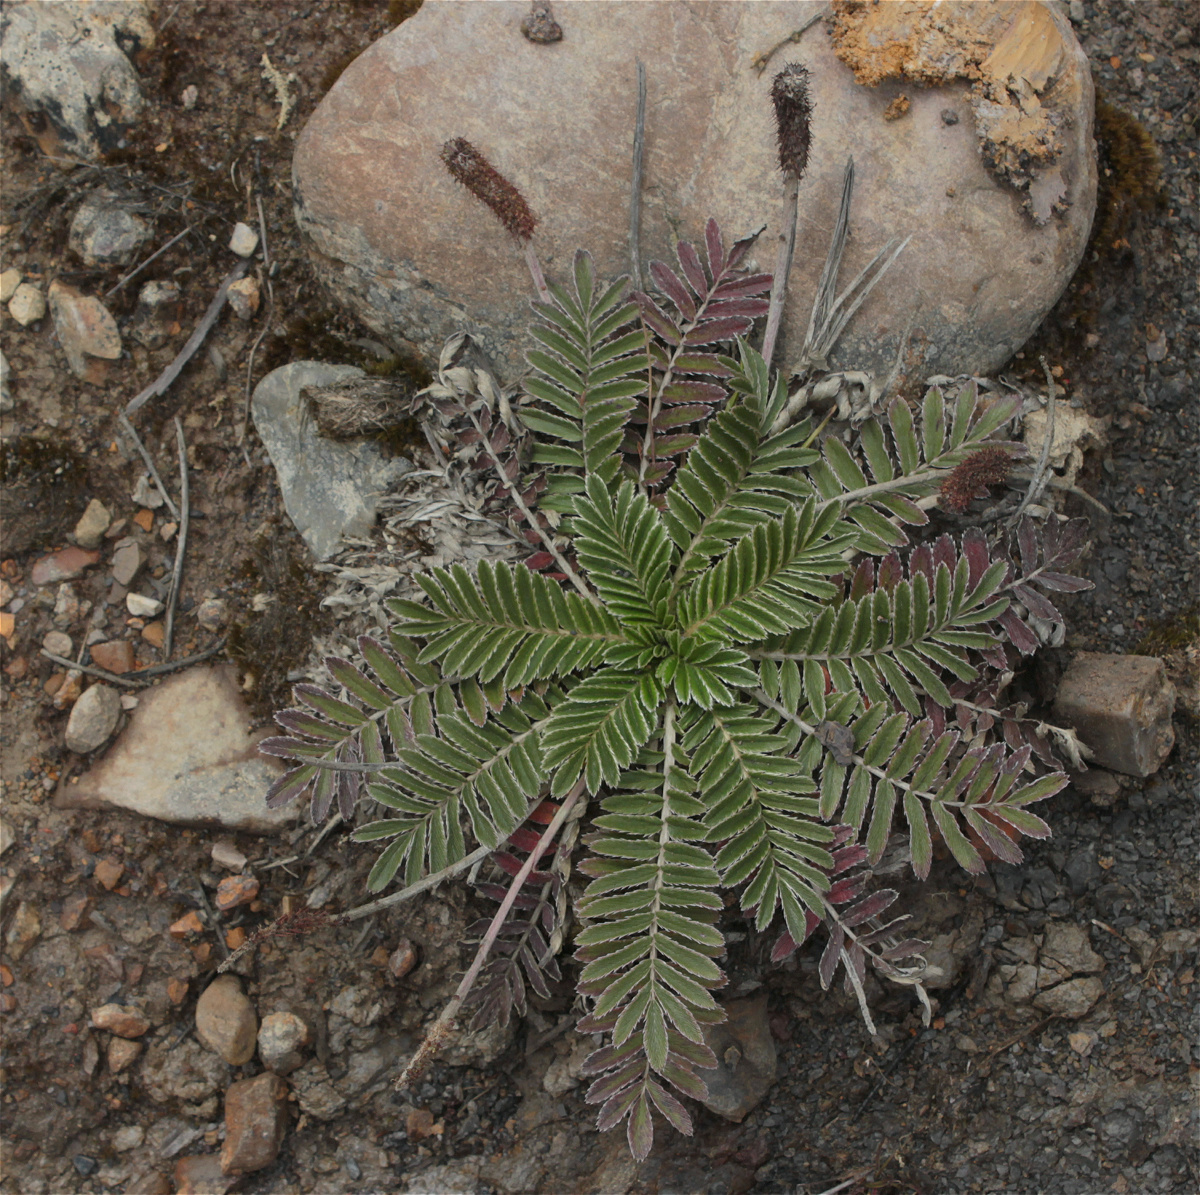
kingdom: Plantae
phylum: Tracheophyta
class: Magnoliopsida
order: Rosales
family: Rosaceae
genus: Acaena
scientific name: Acaena cylindristachya
